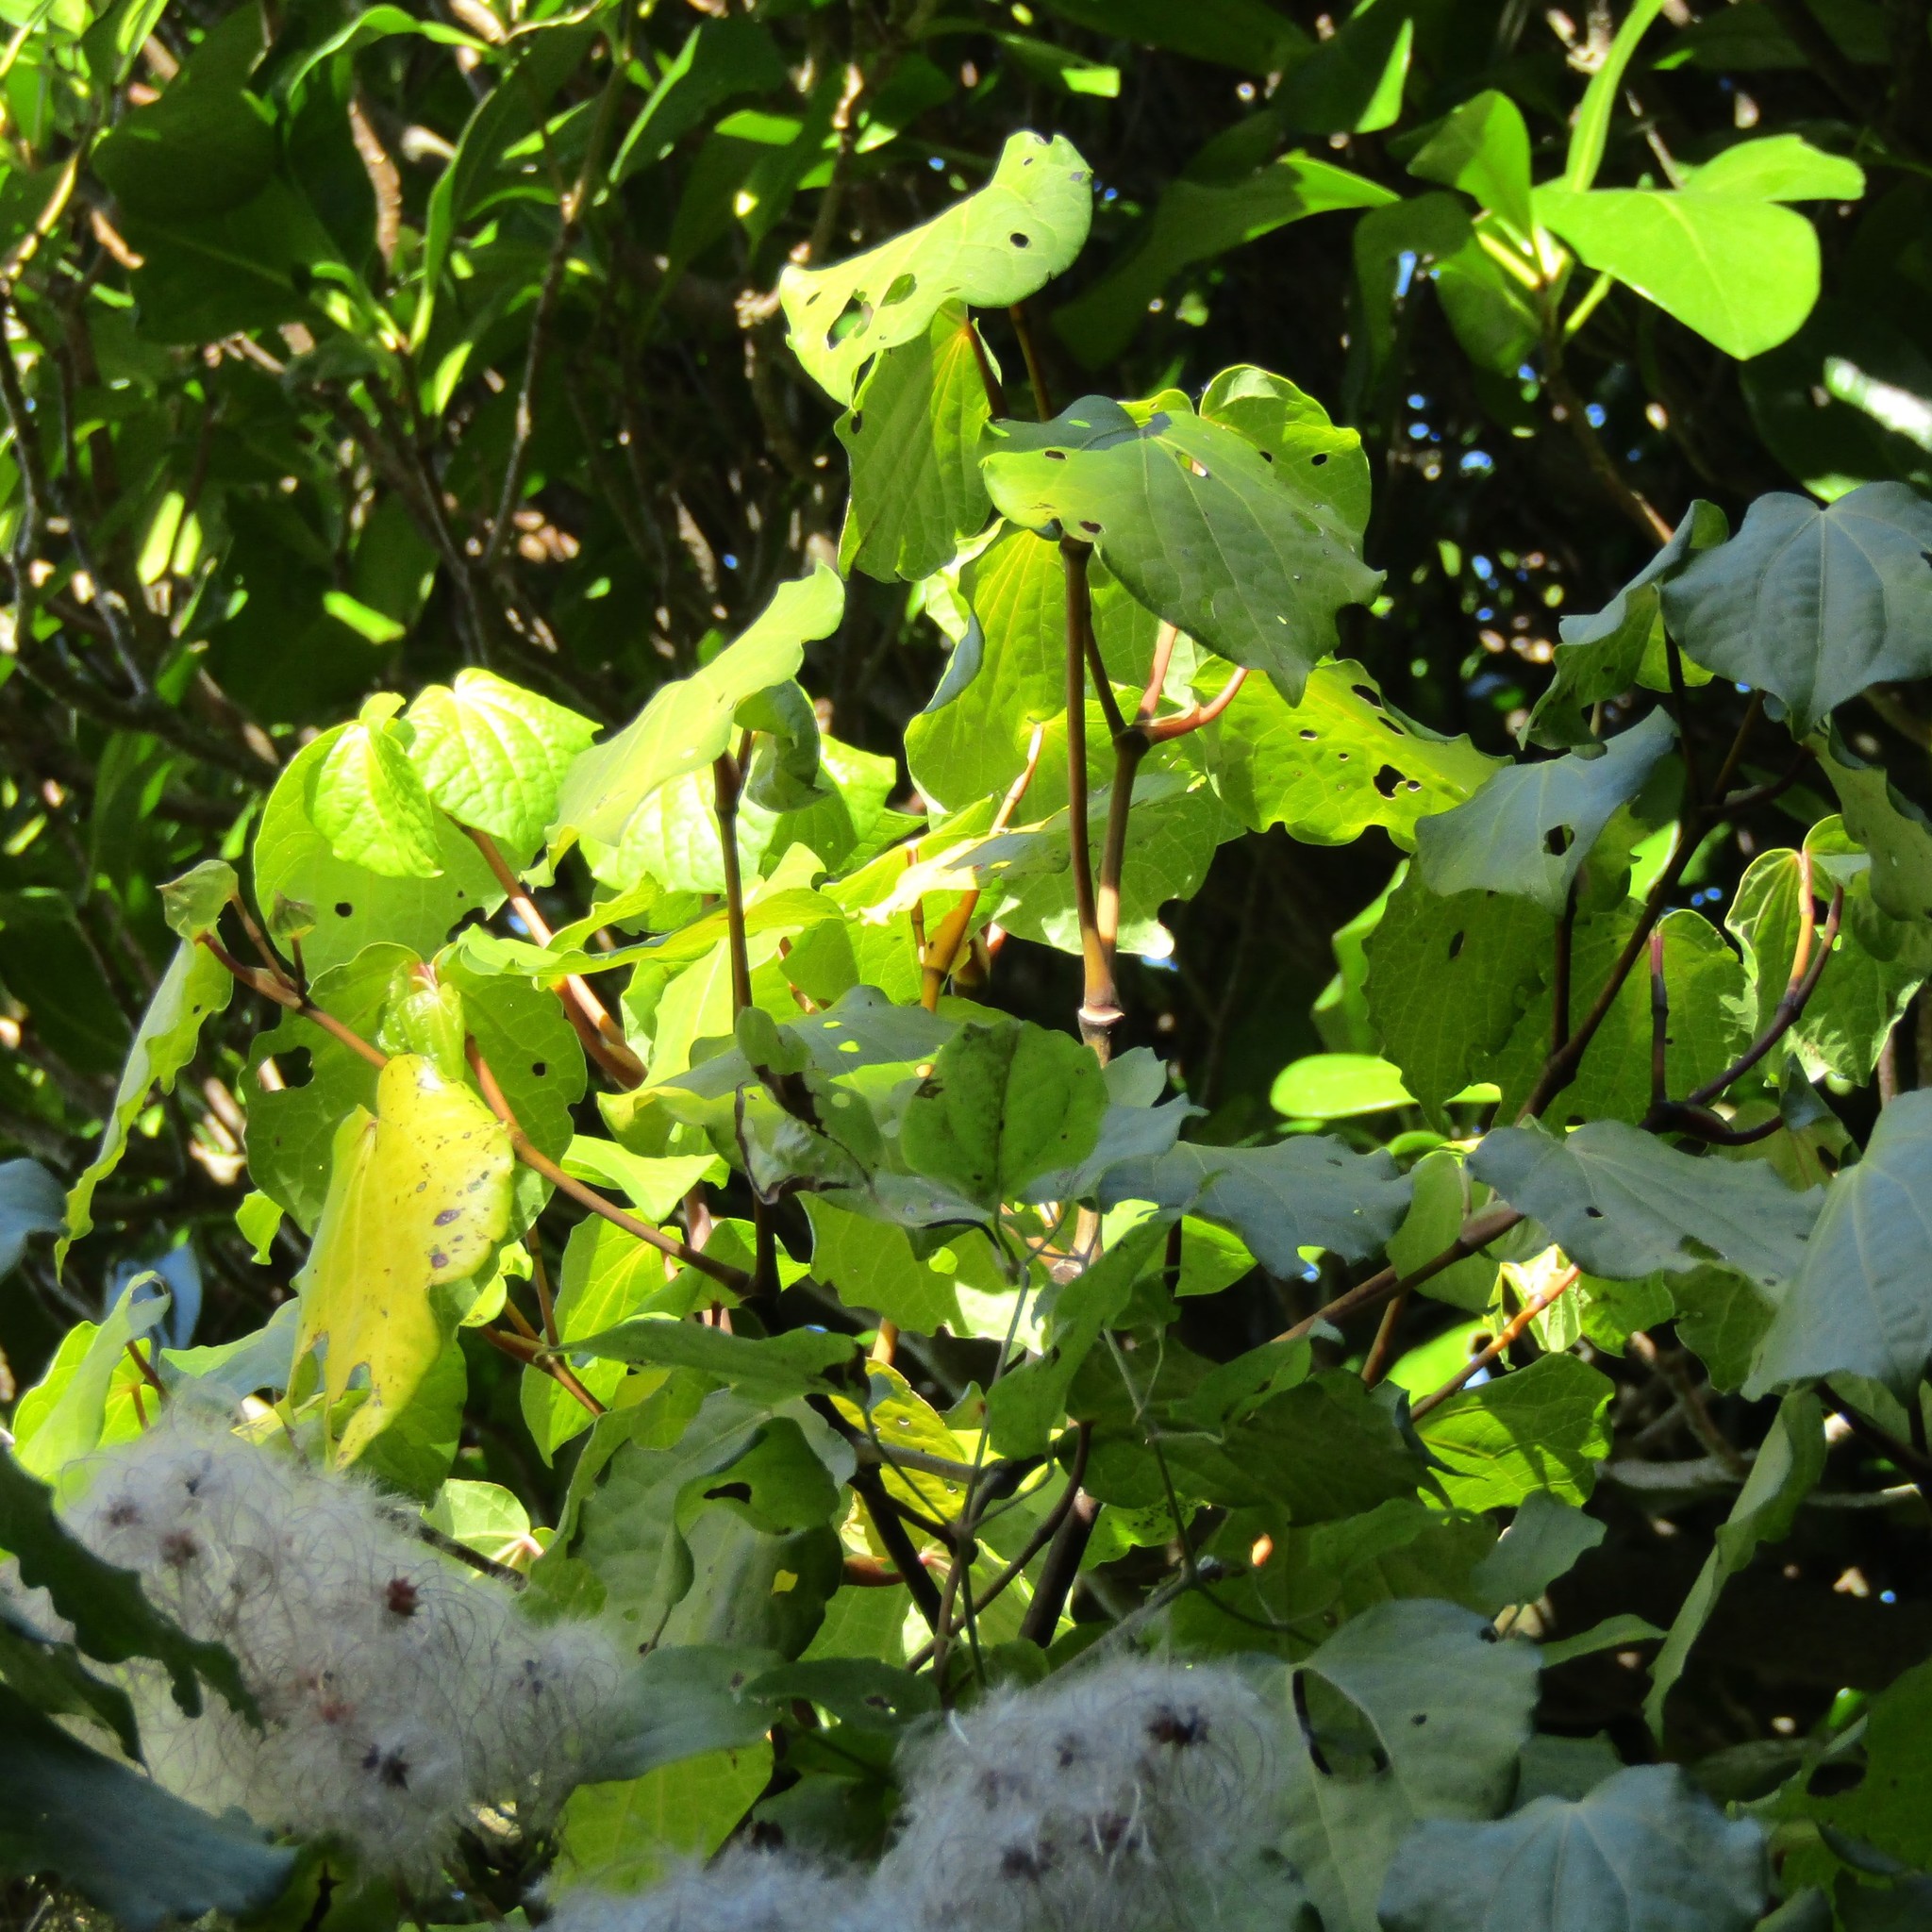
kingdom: Plantae
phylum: Tracheophyta
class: Magnoliopsida
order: Piperales
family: Piperaceae
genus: Macropiper
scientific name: Macropiper excelsum
